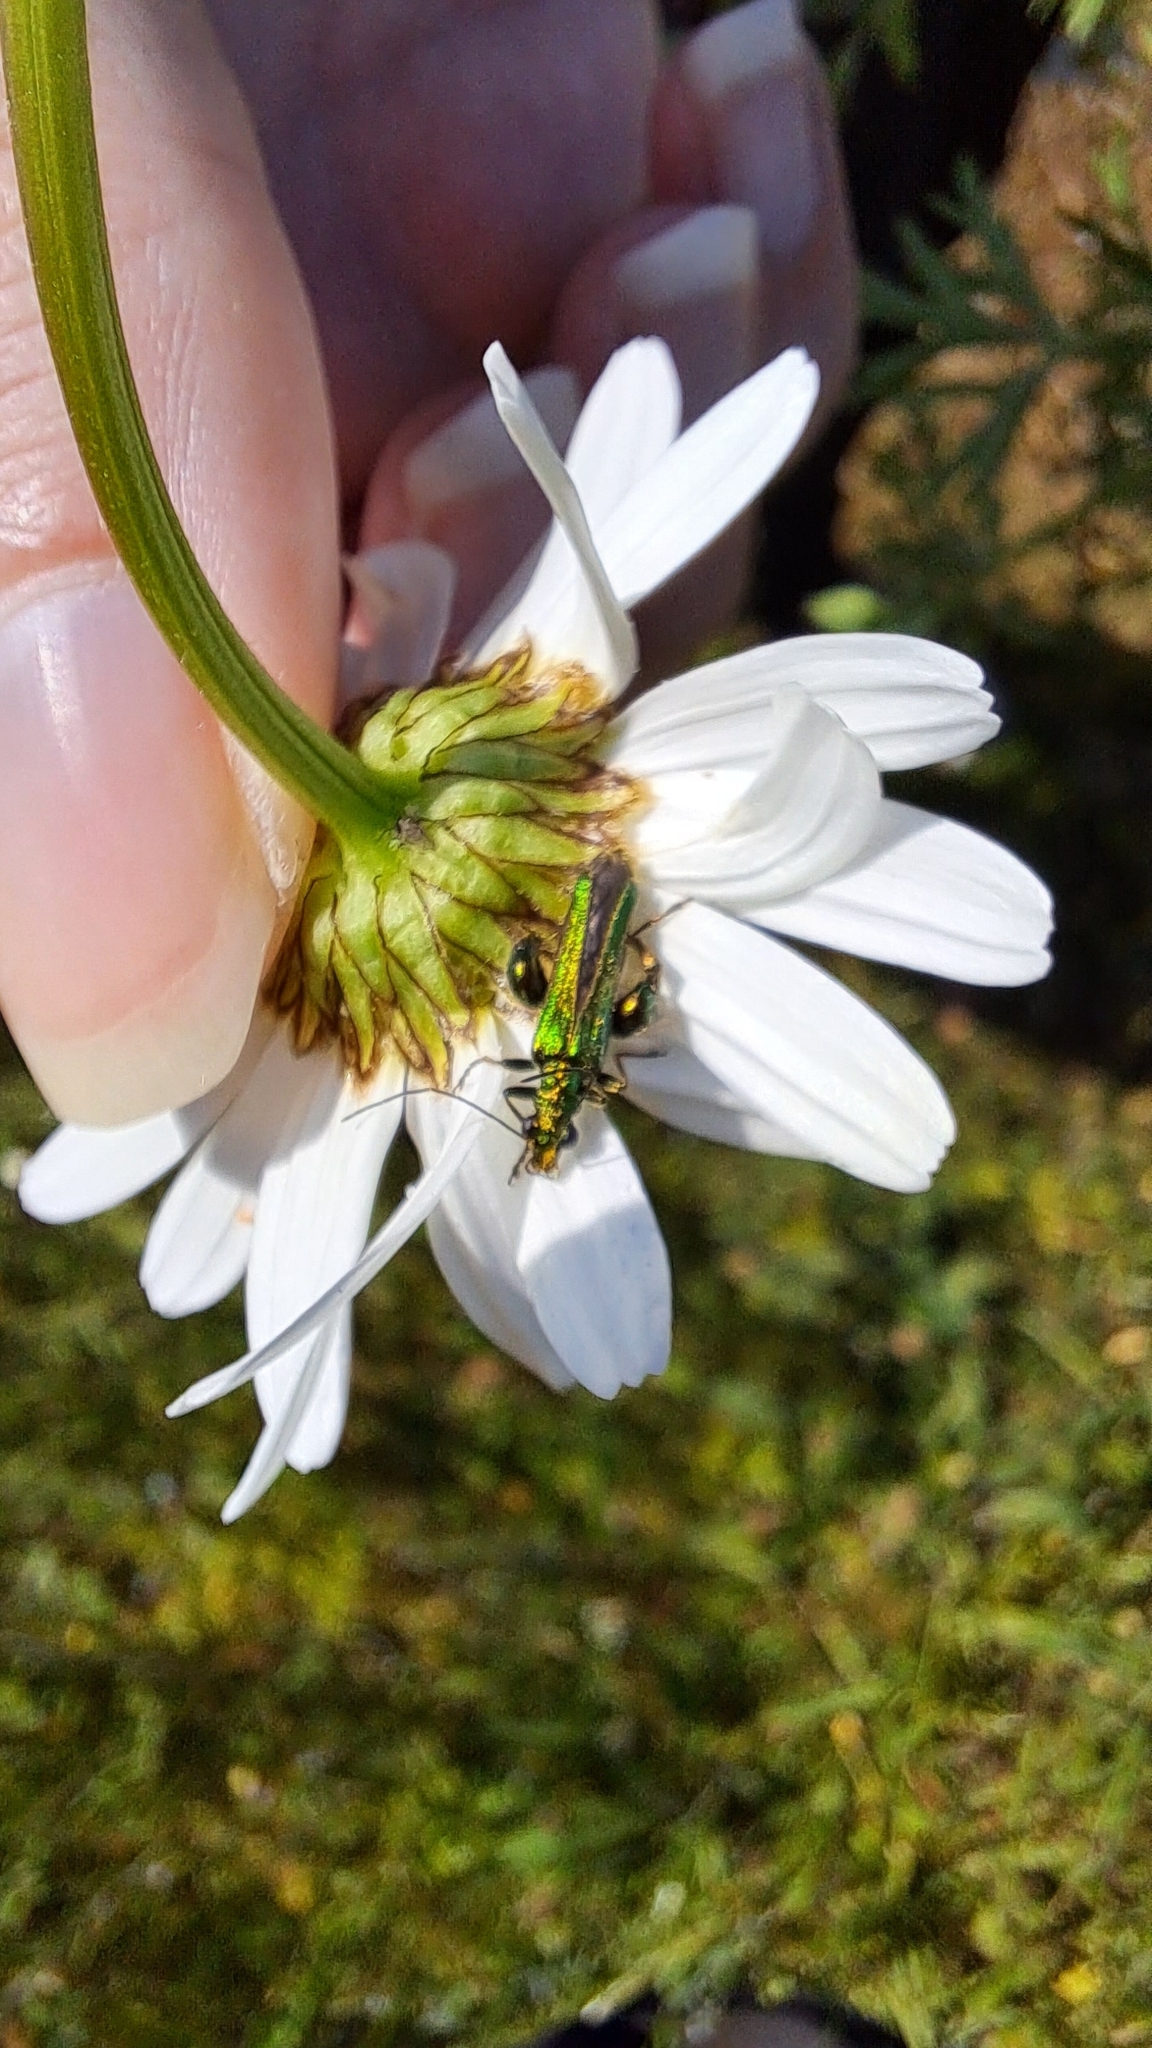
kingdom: Animalia
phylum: Arthropoda
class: Insecta
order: Coleoptera
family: Oedemeridae
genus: Oedemera
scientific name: Oedemera nobilis
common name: Swollen-thighed beetle
